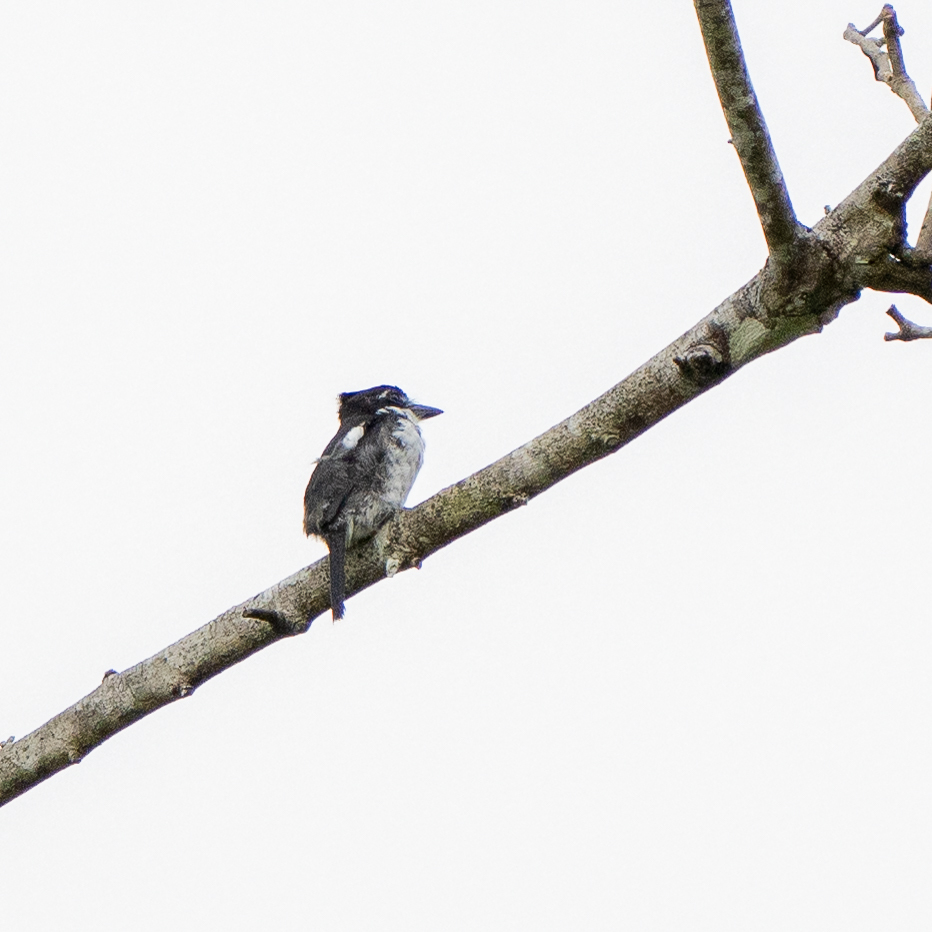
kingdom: Animalia
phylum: Chordata
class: Aves
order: Piciformes
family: Bucconidae
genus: Notharchus
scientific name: Notharchus tectus
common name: Pied puffbird
